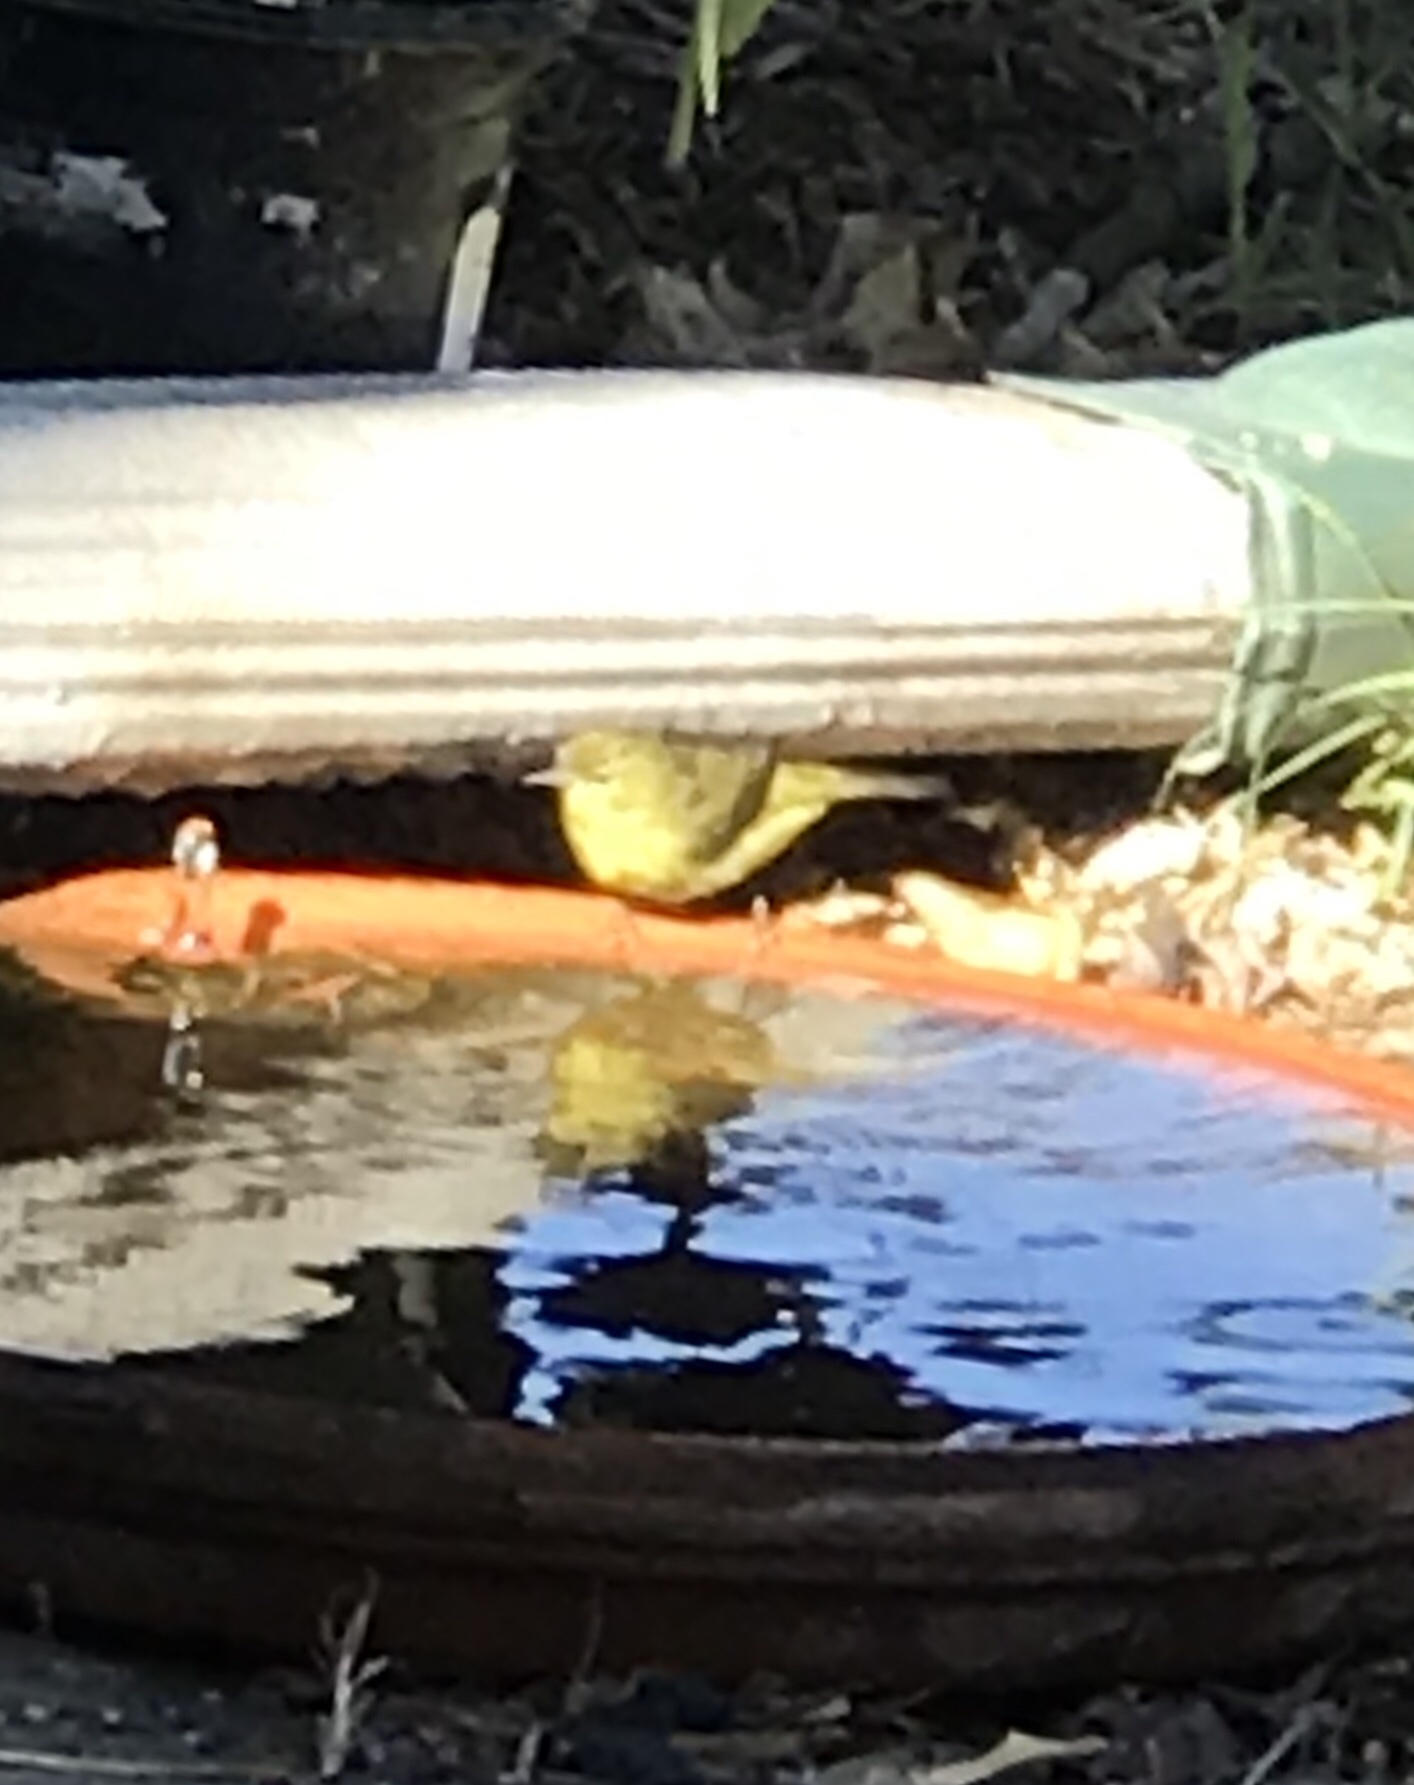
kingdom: Animalia
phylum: Chordata
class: Aves
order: Passeriformes
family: Parulidae
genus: Leiothlypis
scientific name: Leiothlypis celata
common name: Orange-crowned warbler
